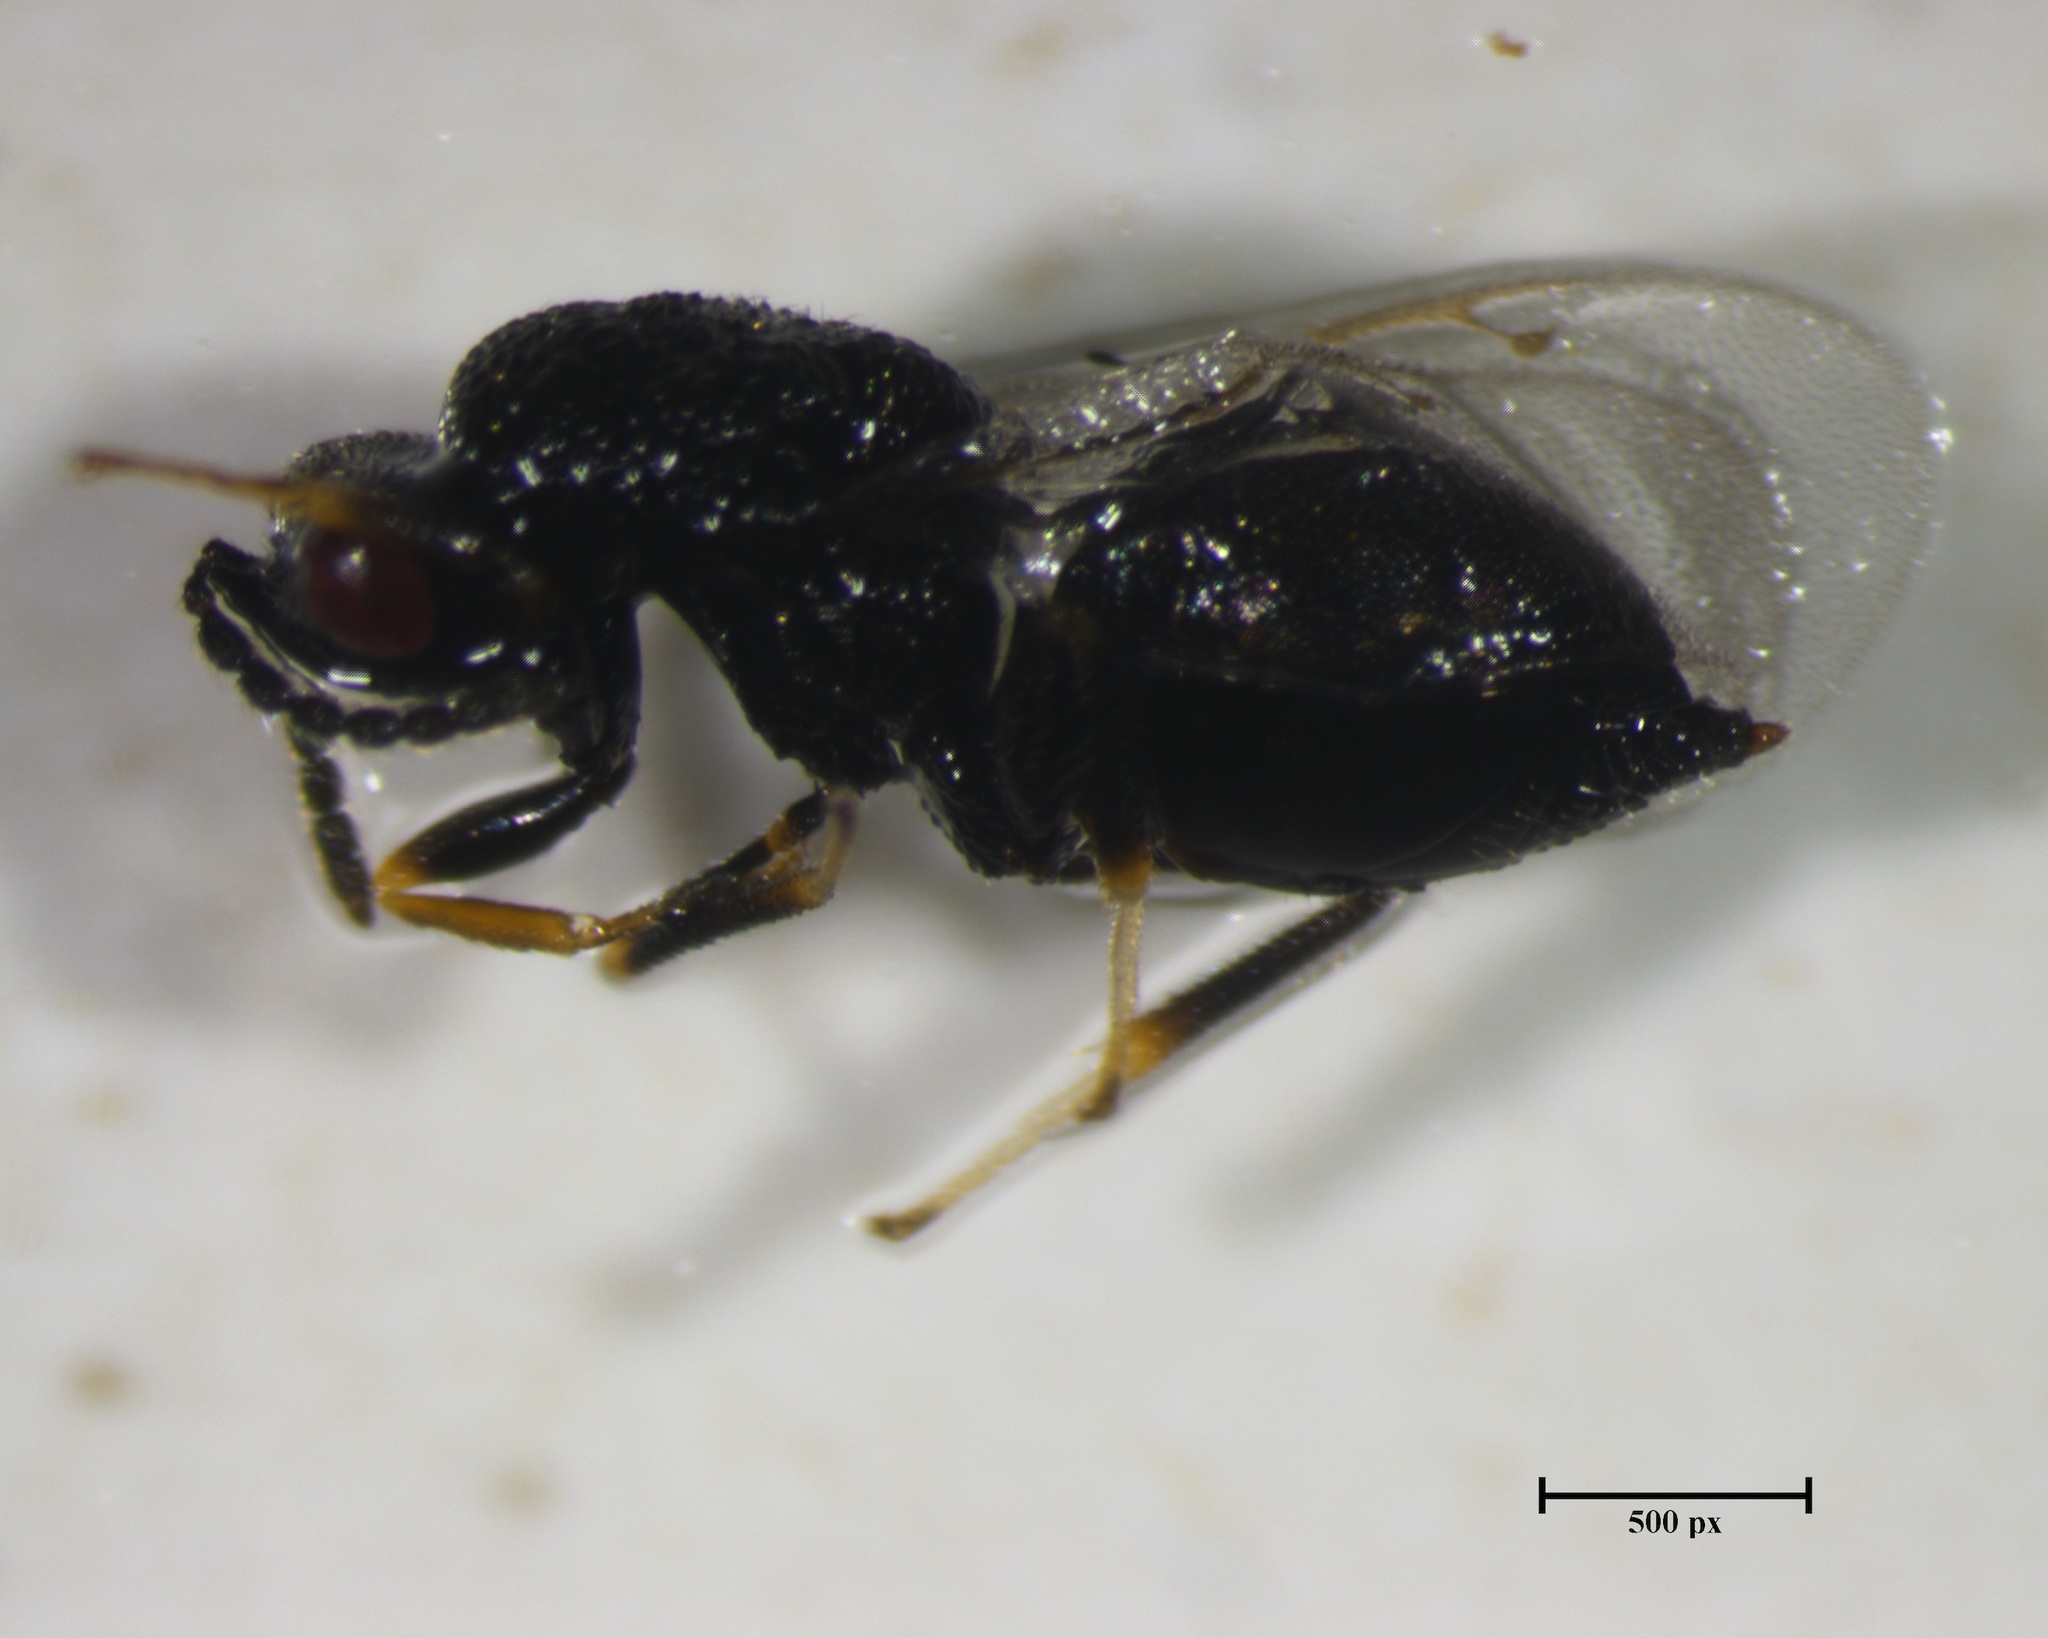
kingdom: Animalia
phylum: Arthropoda
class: Insecta
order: Hymenoptera
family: Eurytomidae
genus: Eurytoma
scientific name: Eurytoma longavena
